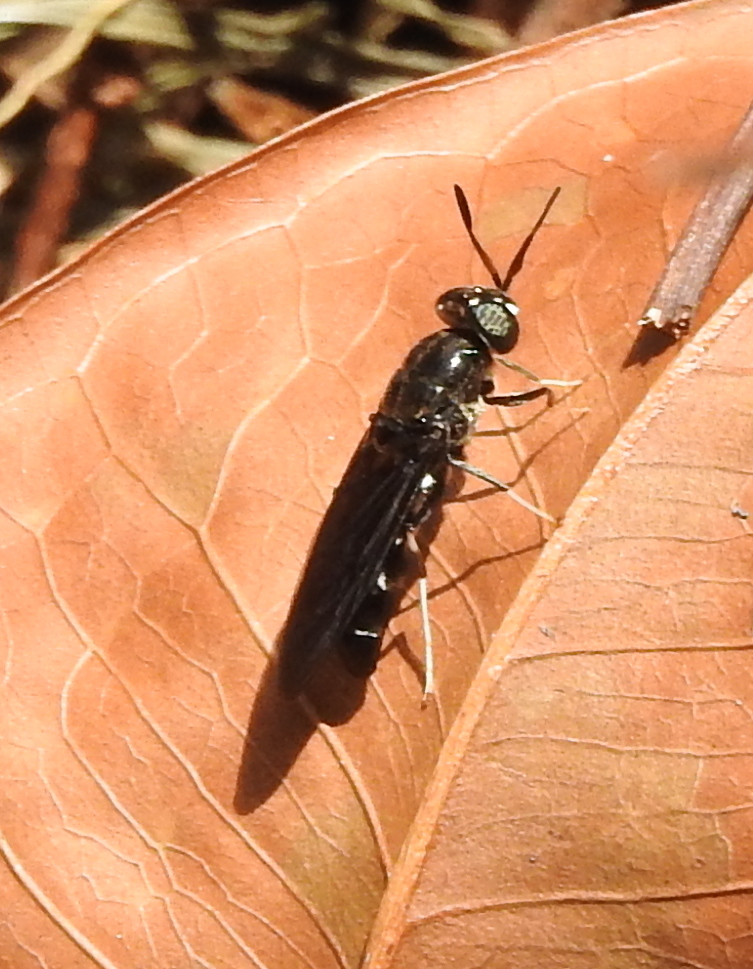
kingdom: Animalia
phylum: Arthropoda
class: Insecta
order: Diptera
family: Stratiomyidae
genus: Hermetia
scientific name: Hermetia illucens
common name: Black soldier fly
